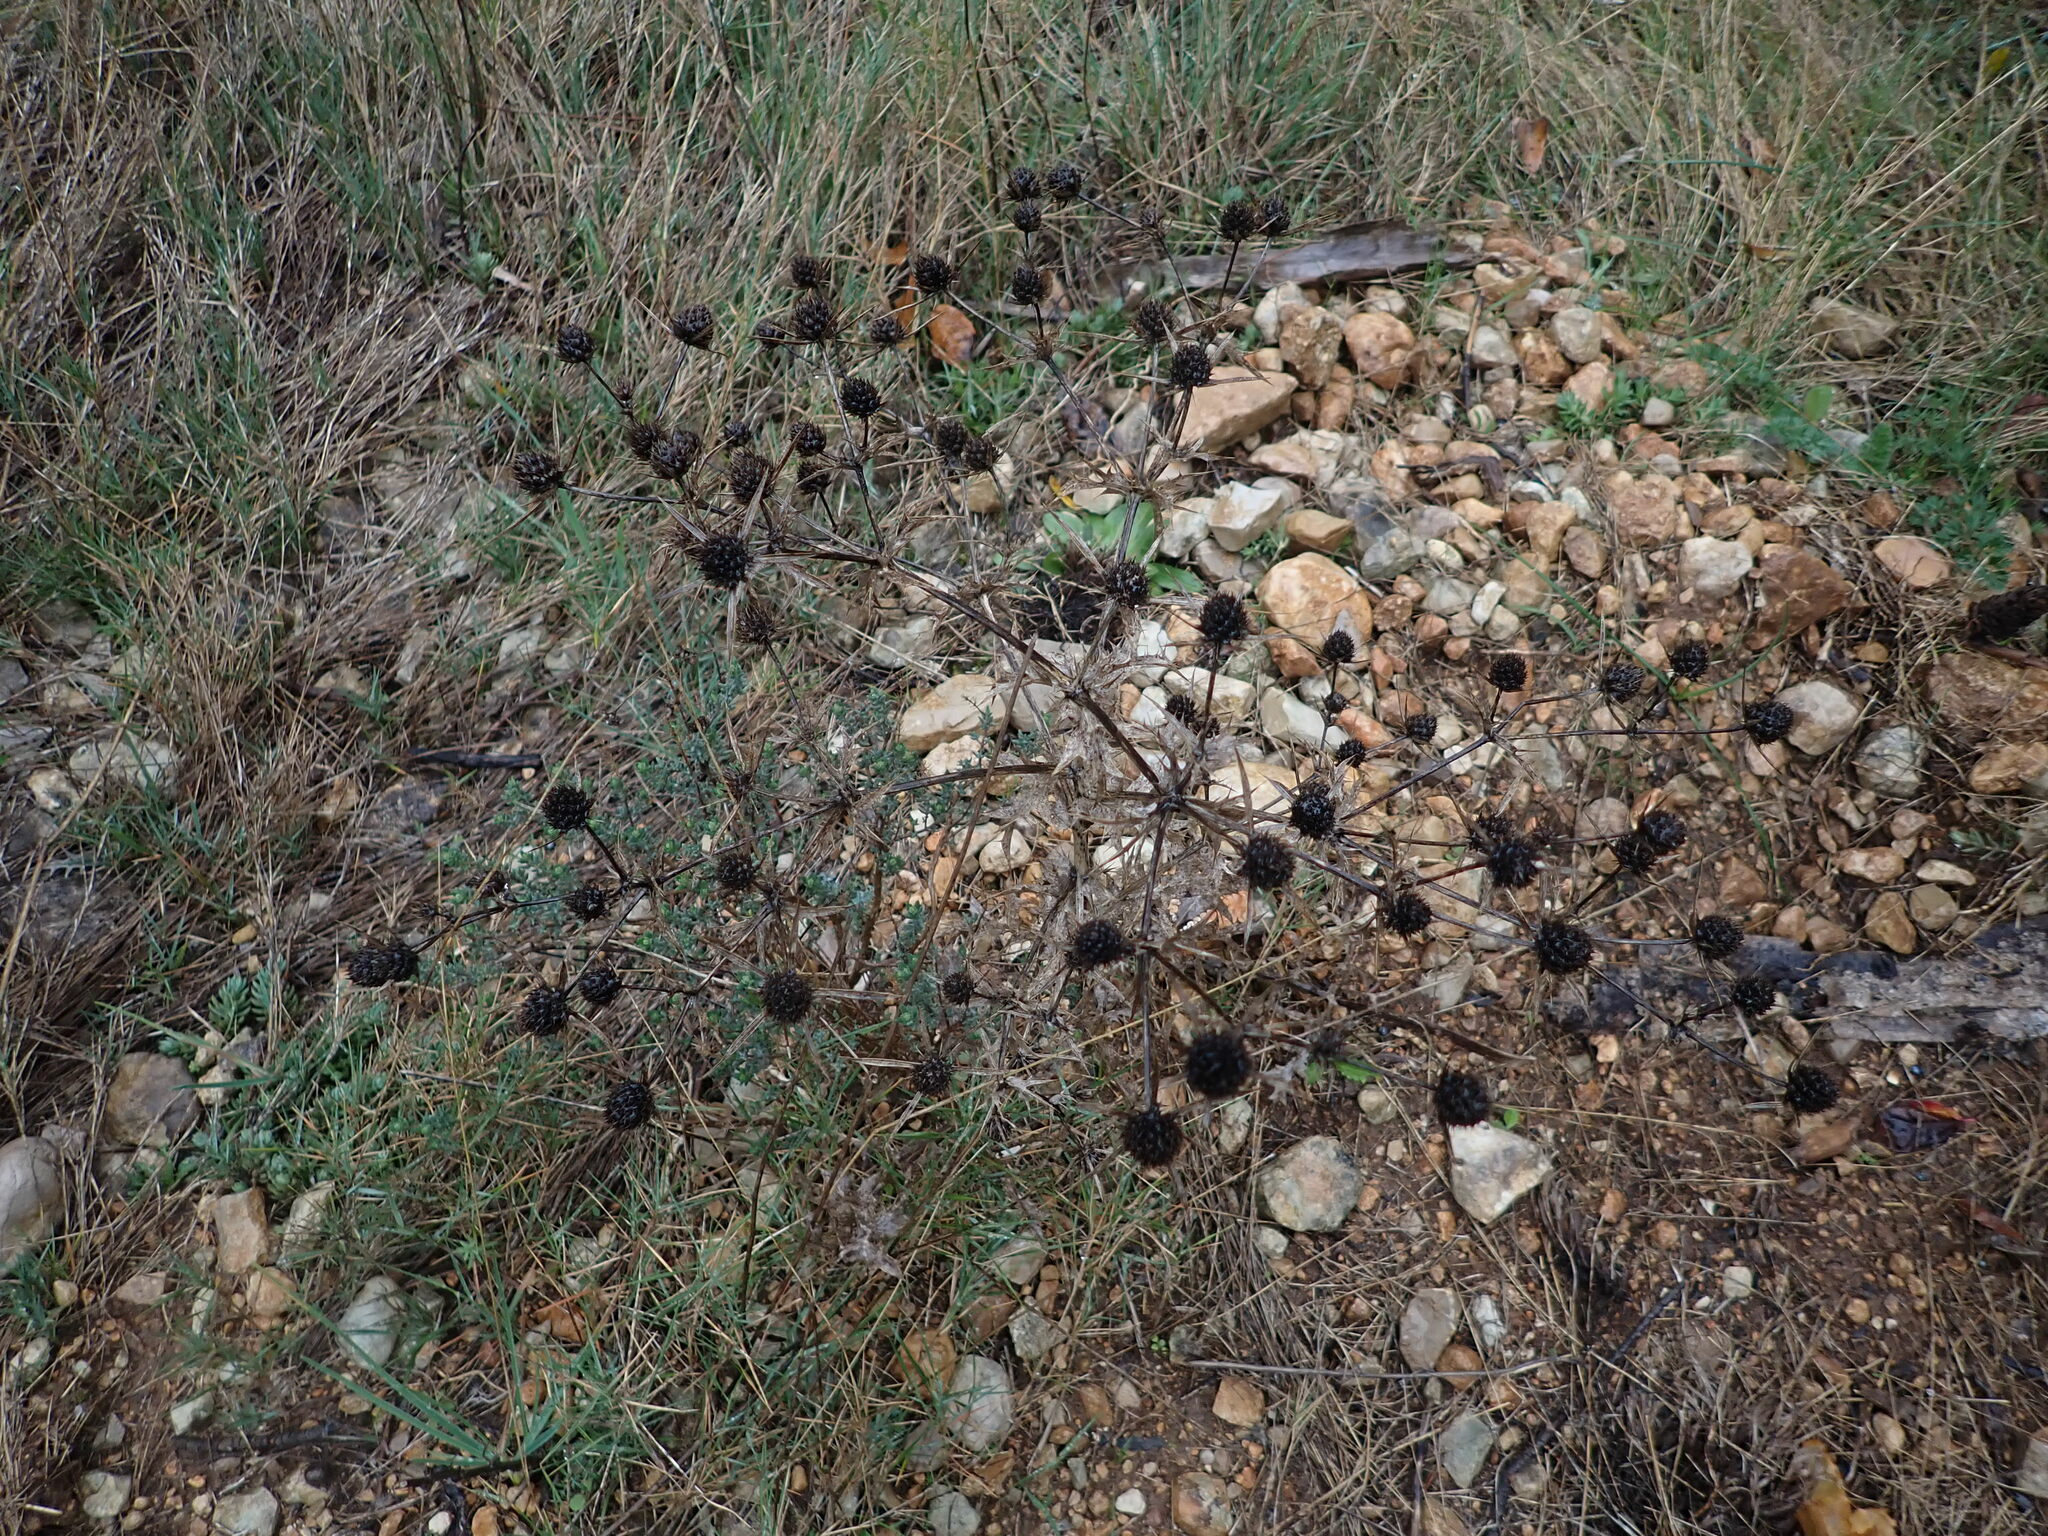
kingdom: Plantae
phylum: Tracheophyta
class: Magnoliopsida
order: Apiales
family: Apiaceae
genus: Eryngium
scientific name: Eryngium campestre
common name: Field eryngo
